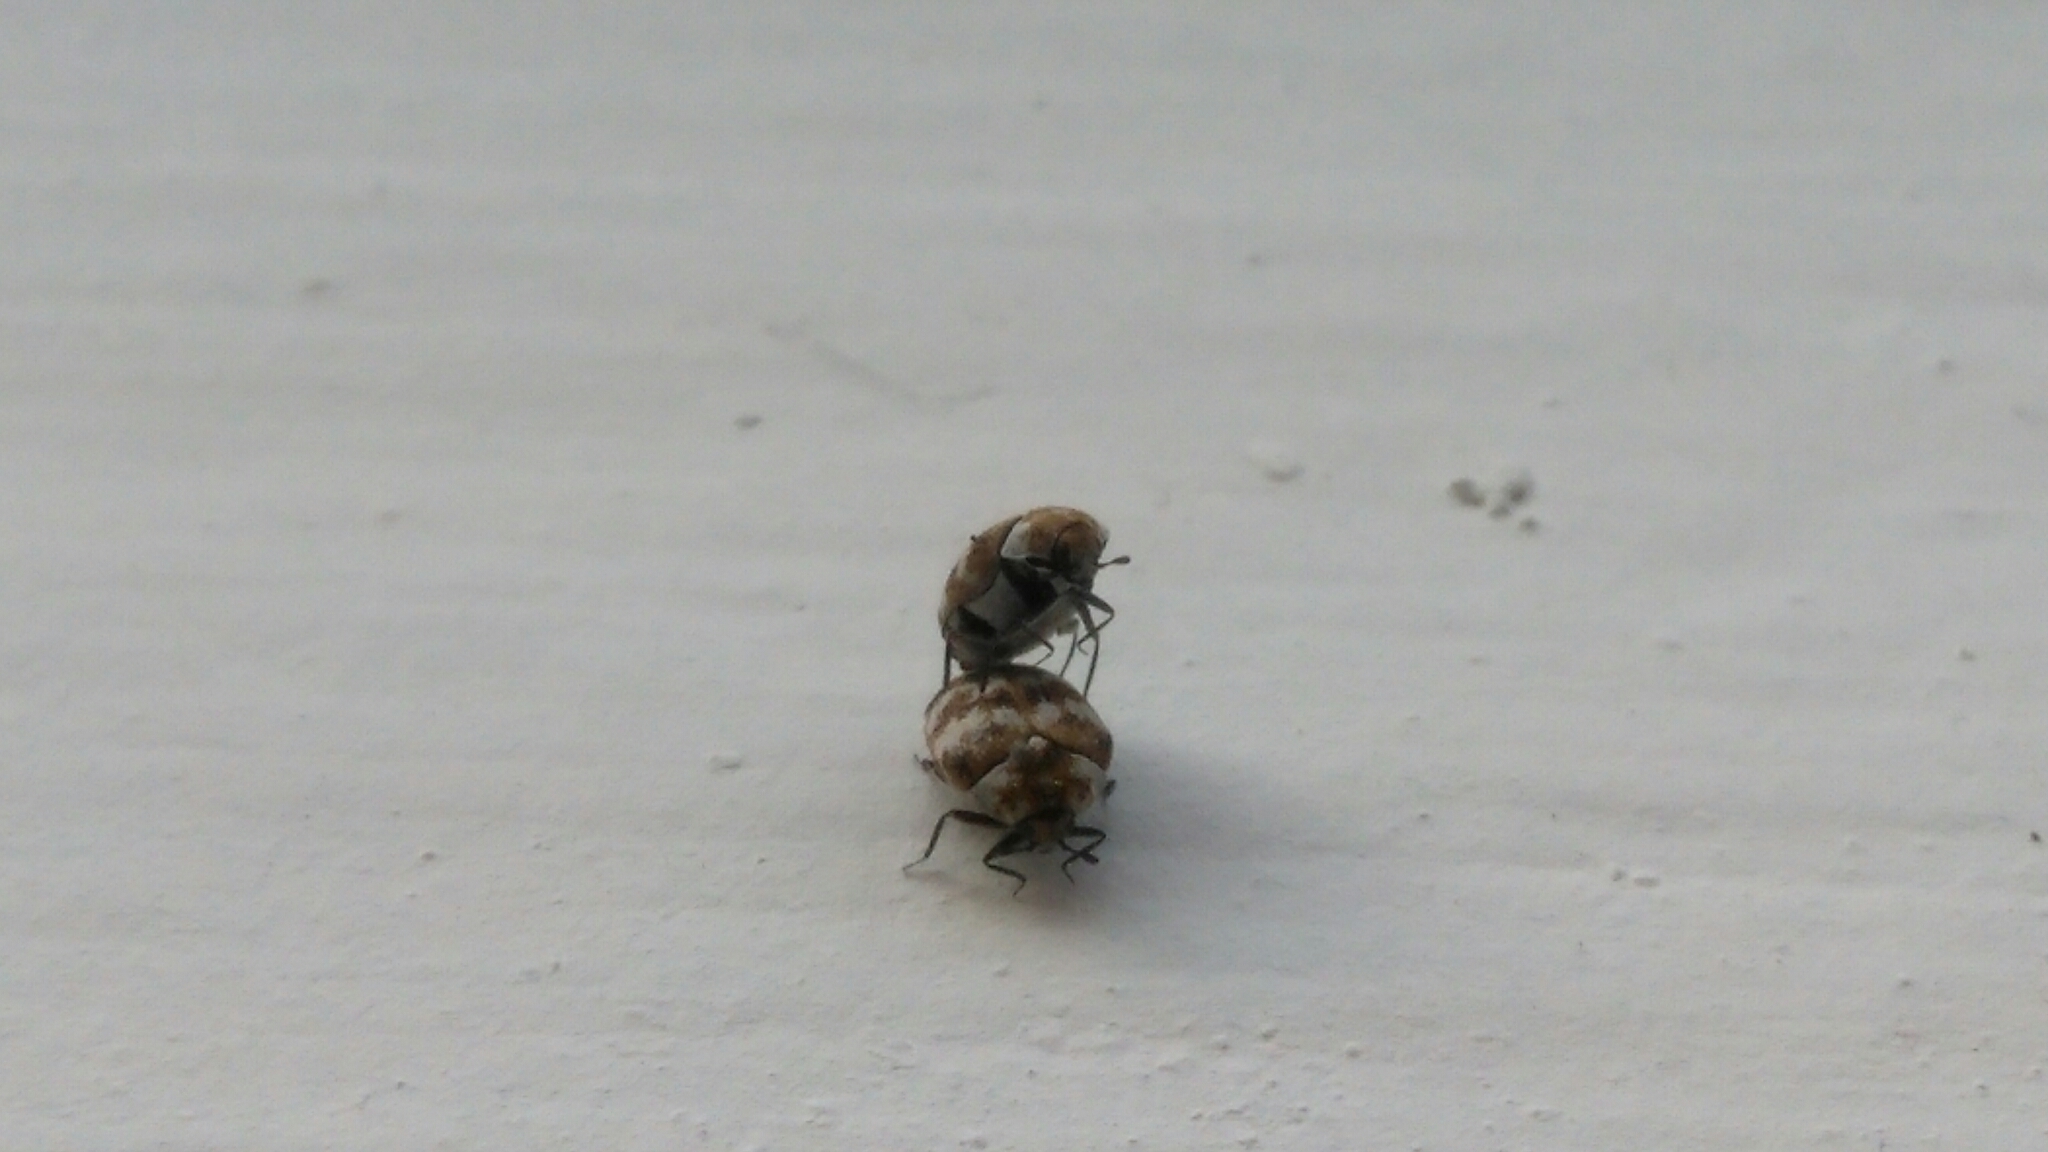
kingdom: Animalia
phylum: Arthropoda
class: Insecta
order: Coleoptera
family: Dermestidae
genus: Anthrenus
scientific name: Anthrenus verbasci
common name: Varied carpet beetle
